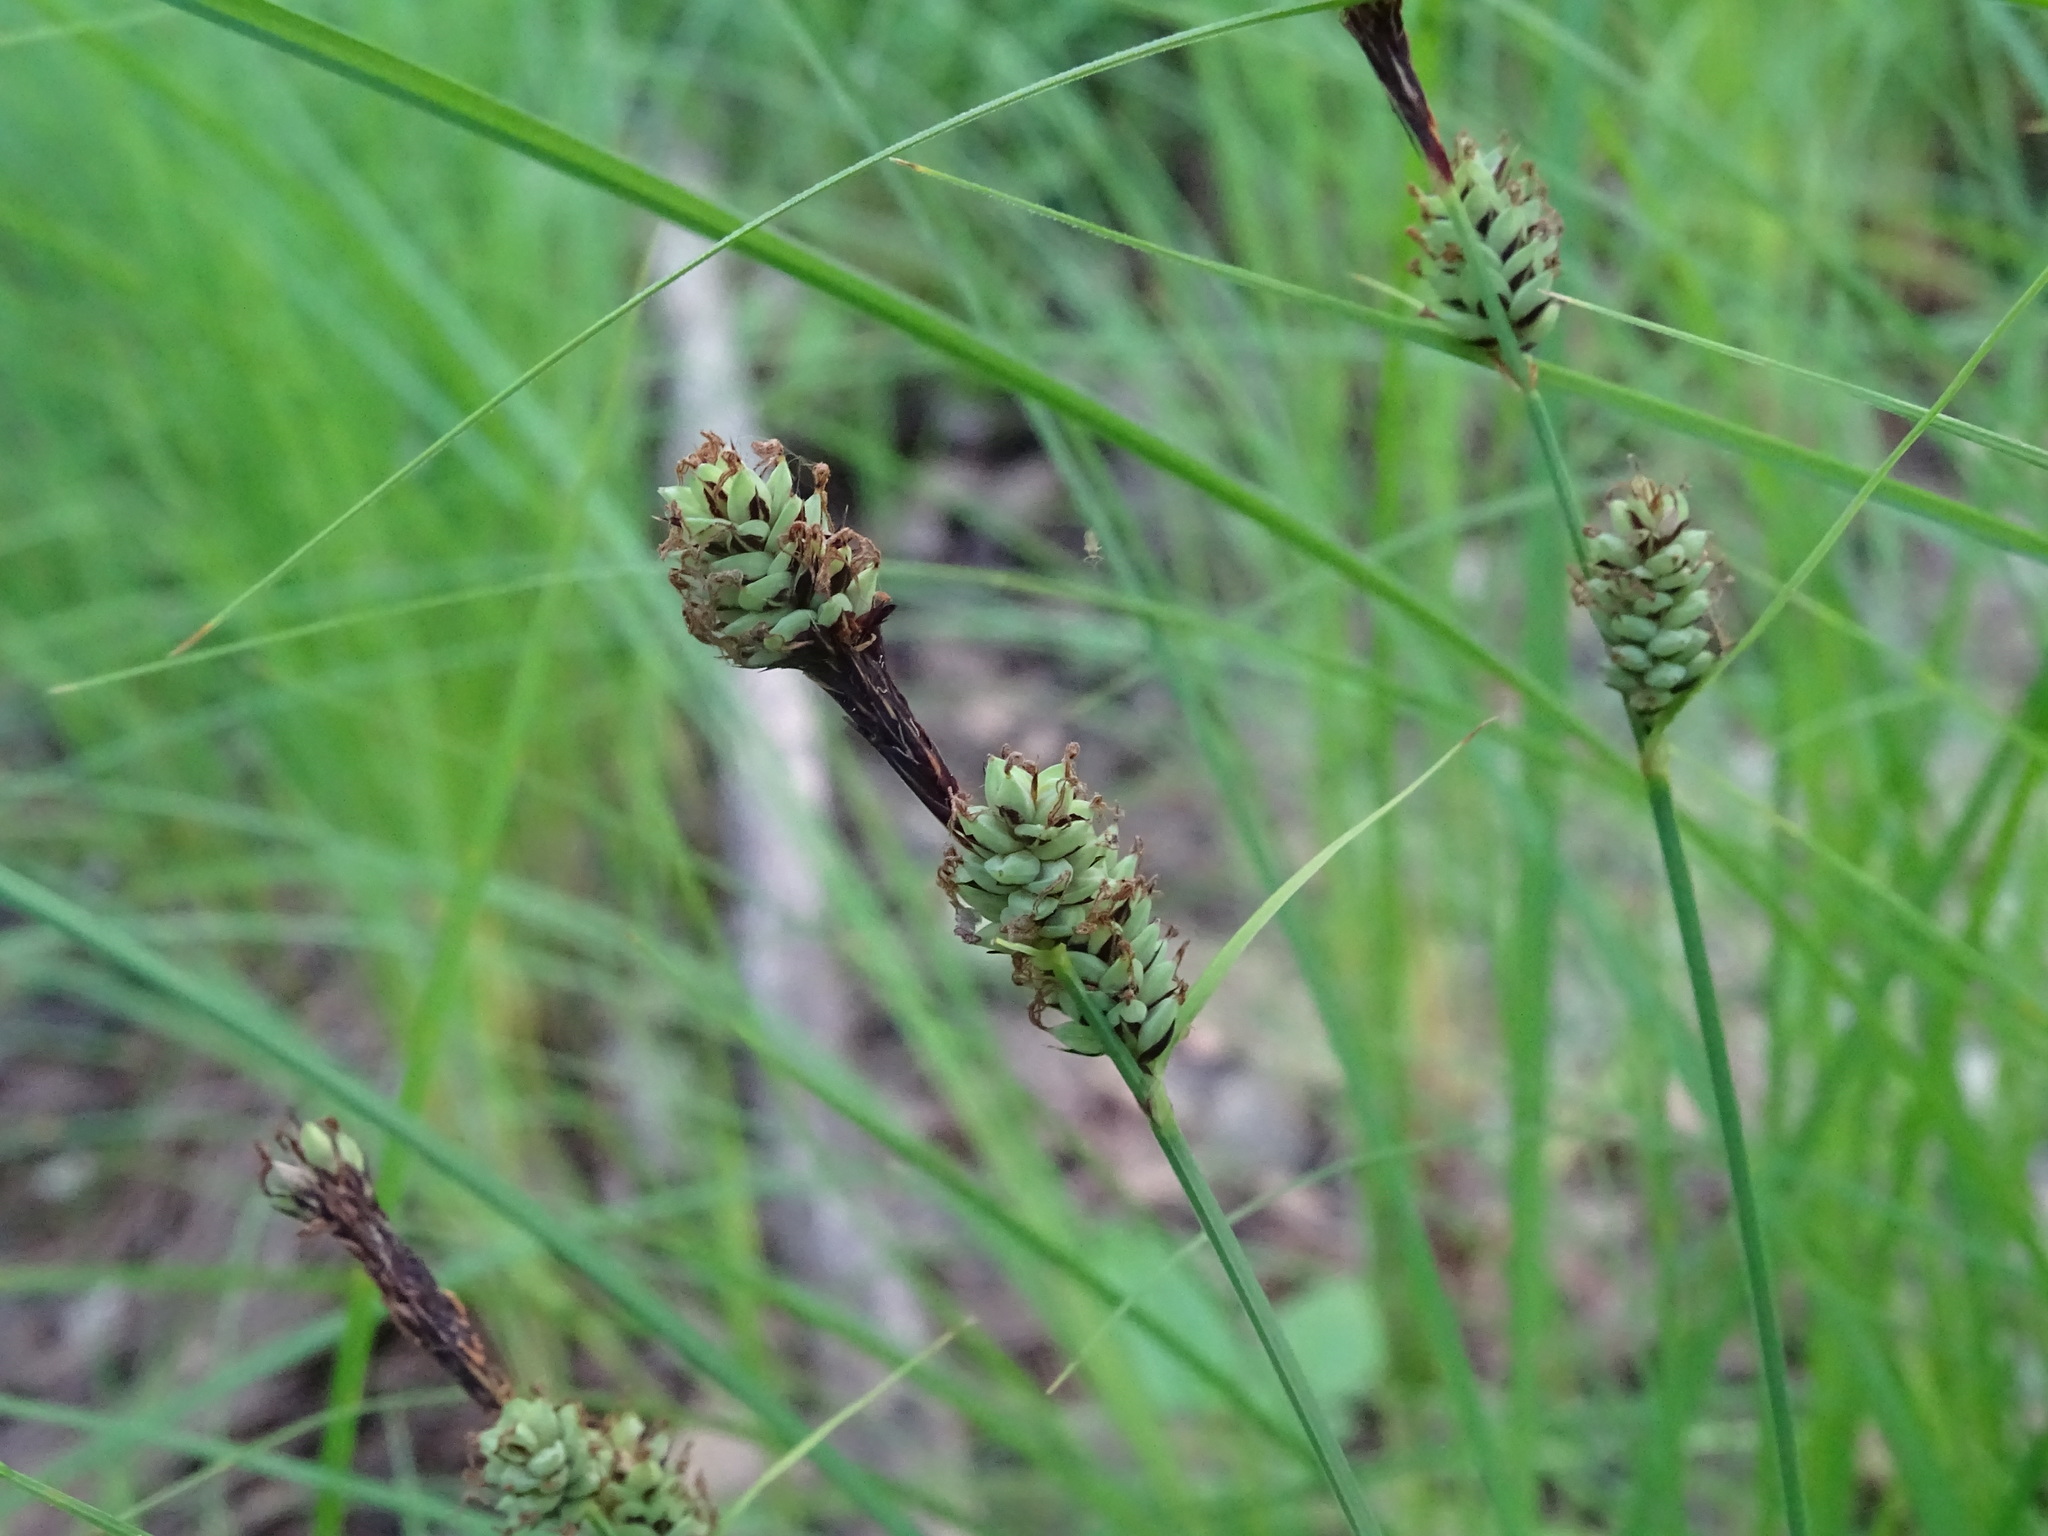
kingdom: Plantae
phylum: Tracheophyta
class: Liliopsida
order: Poales
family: Cyperaceae
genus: Carex
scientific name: Carex buxbaumii
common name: Club sedge
